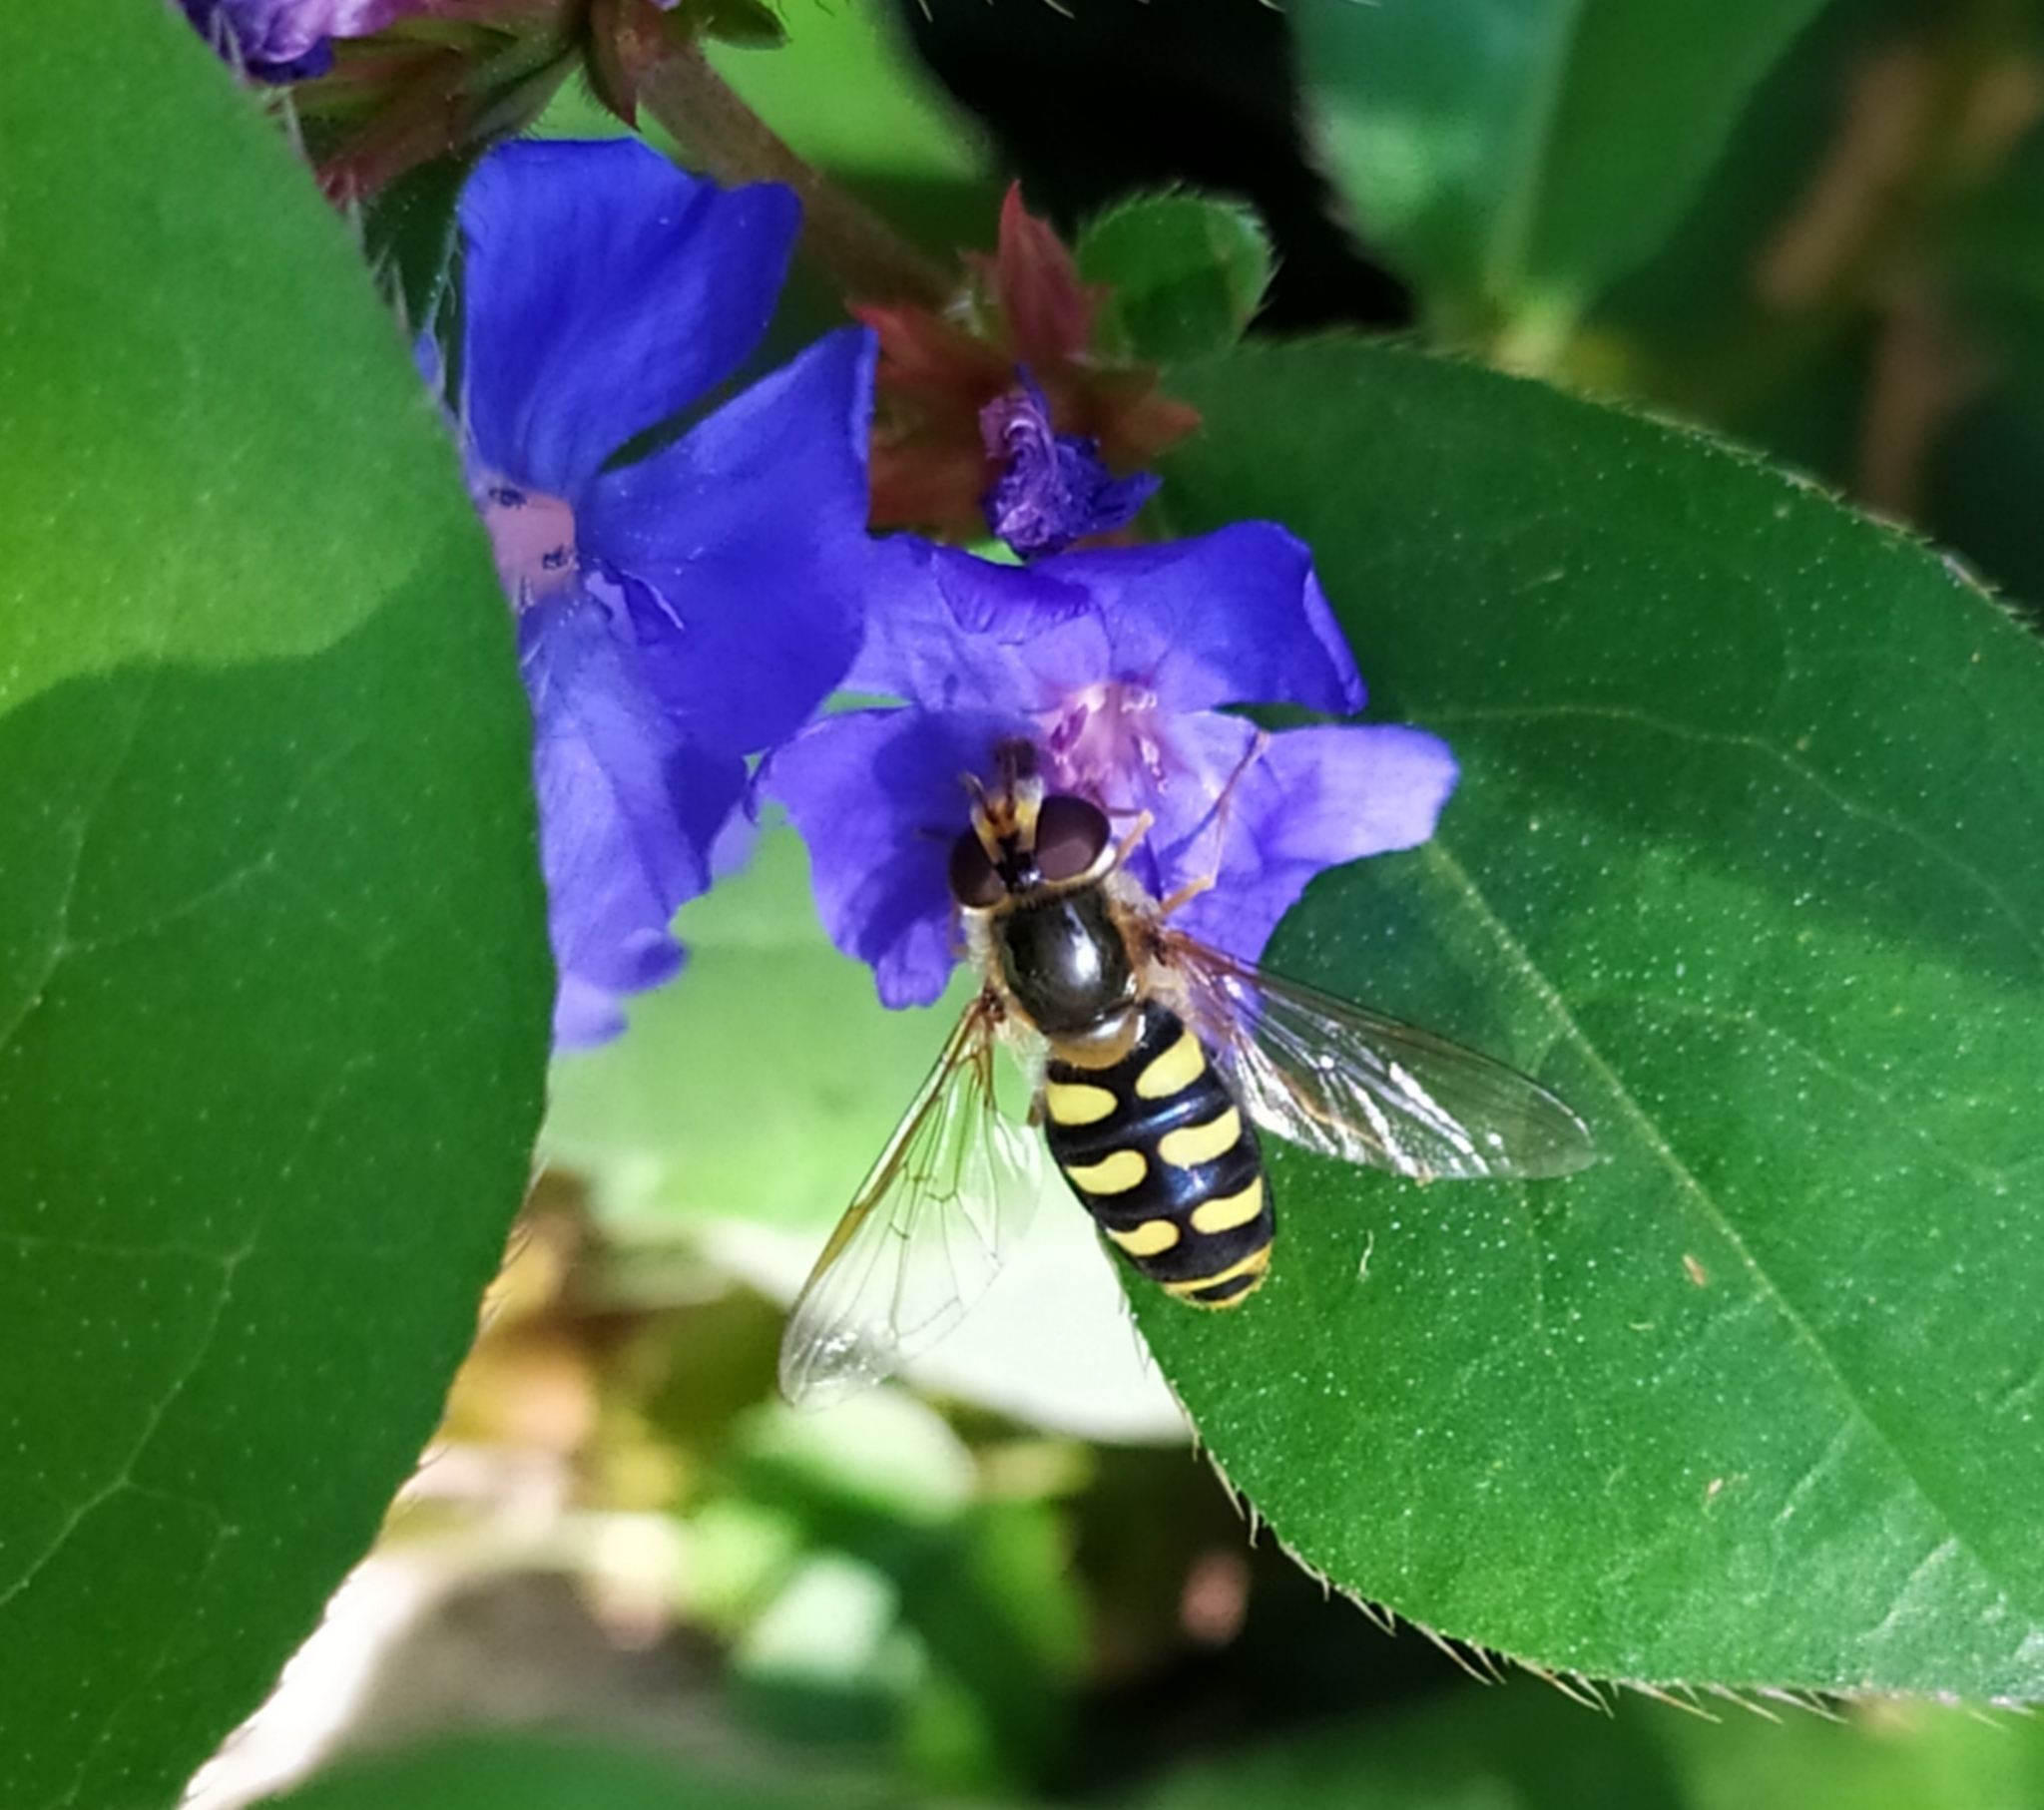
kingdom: Animalia
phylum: Arthropoda
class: Insecta
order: Diptera
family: Syrphidae
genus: Eupeodes
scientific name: Eupeodes luniger
